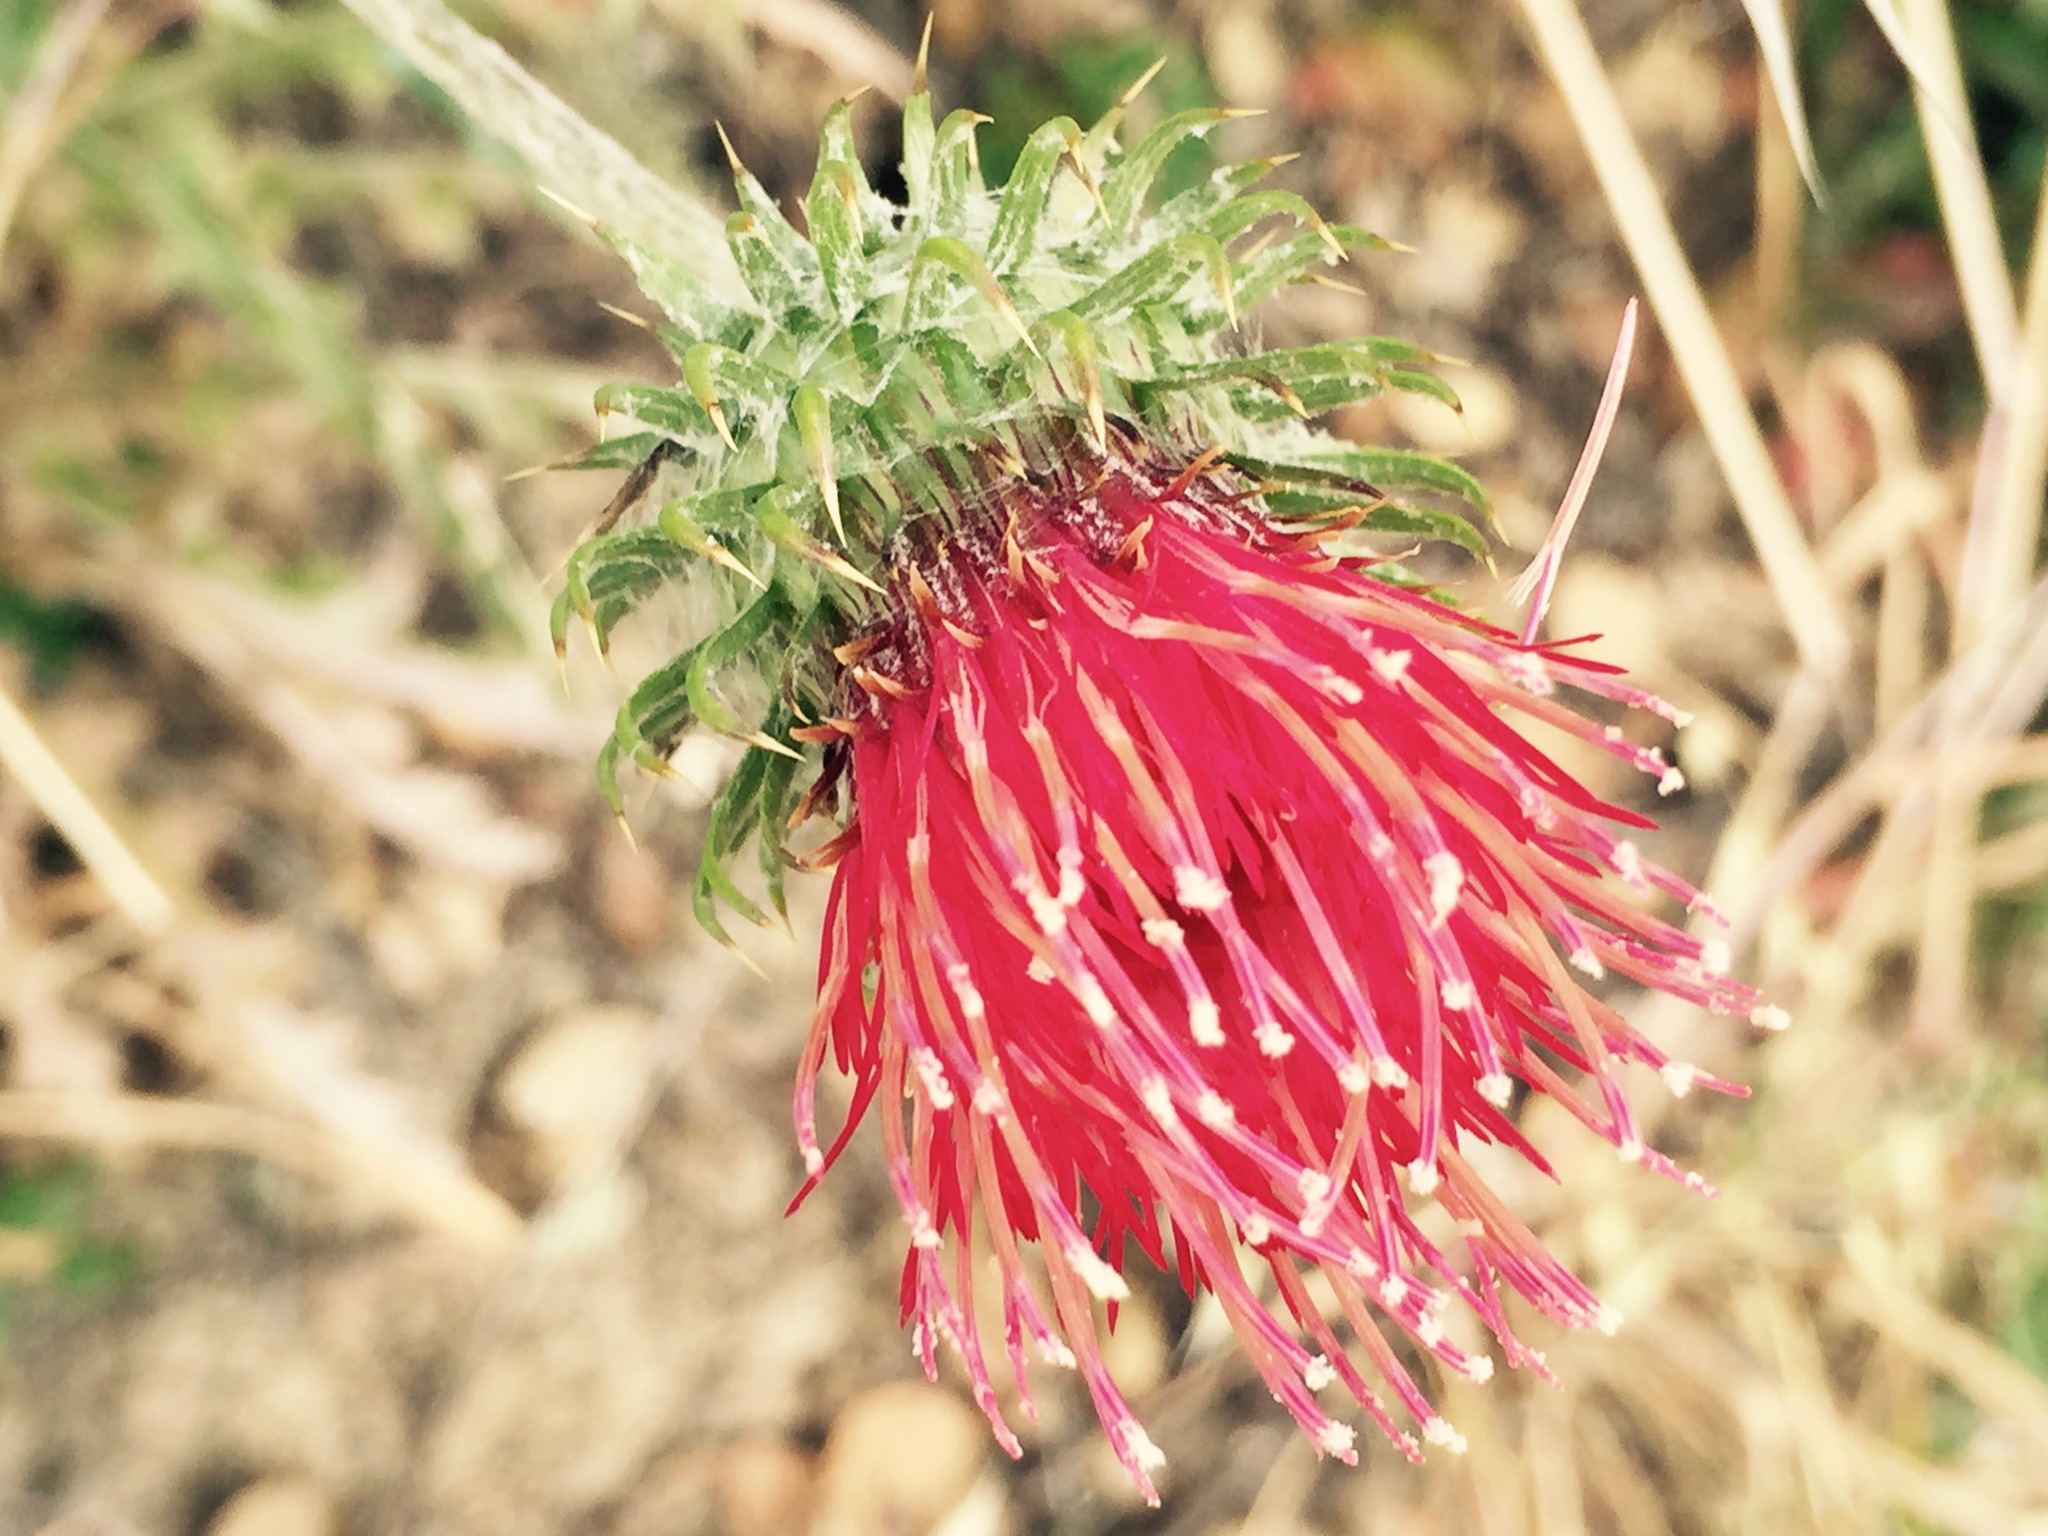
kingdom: Plantae
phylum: Tracheophyta
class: Magnoliopsida
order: Asterales
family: Asteraceae
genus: Cirsium
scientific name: Cirsium occidentale
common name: Western thistle
